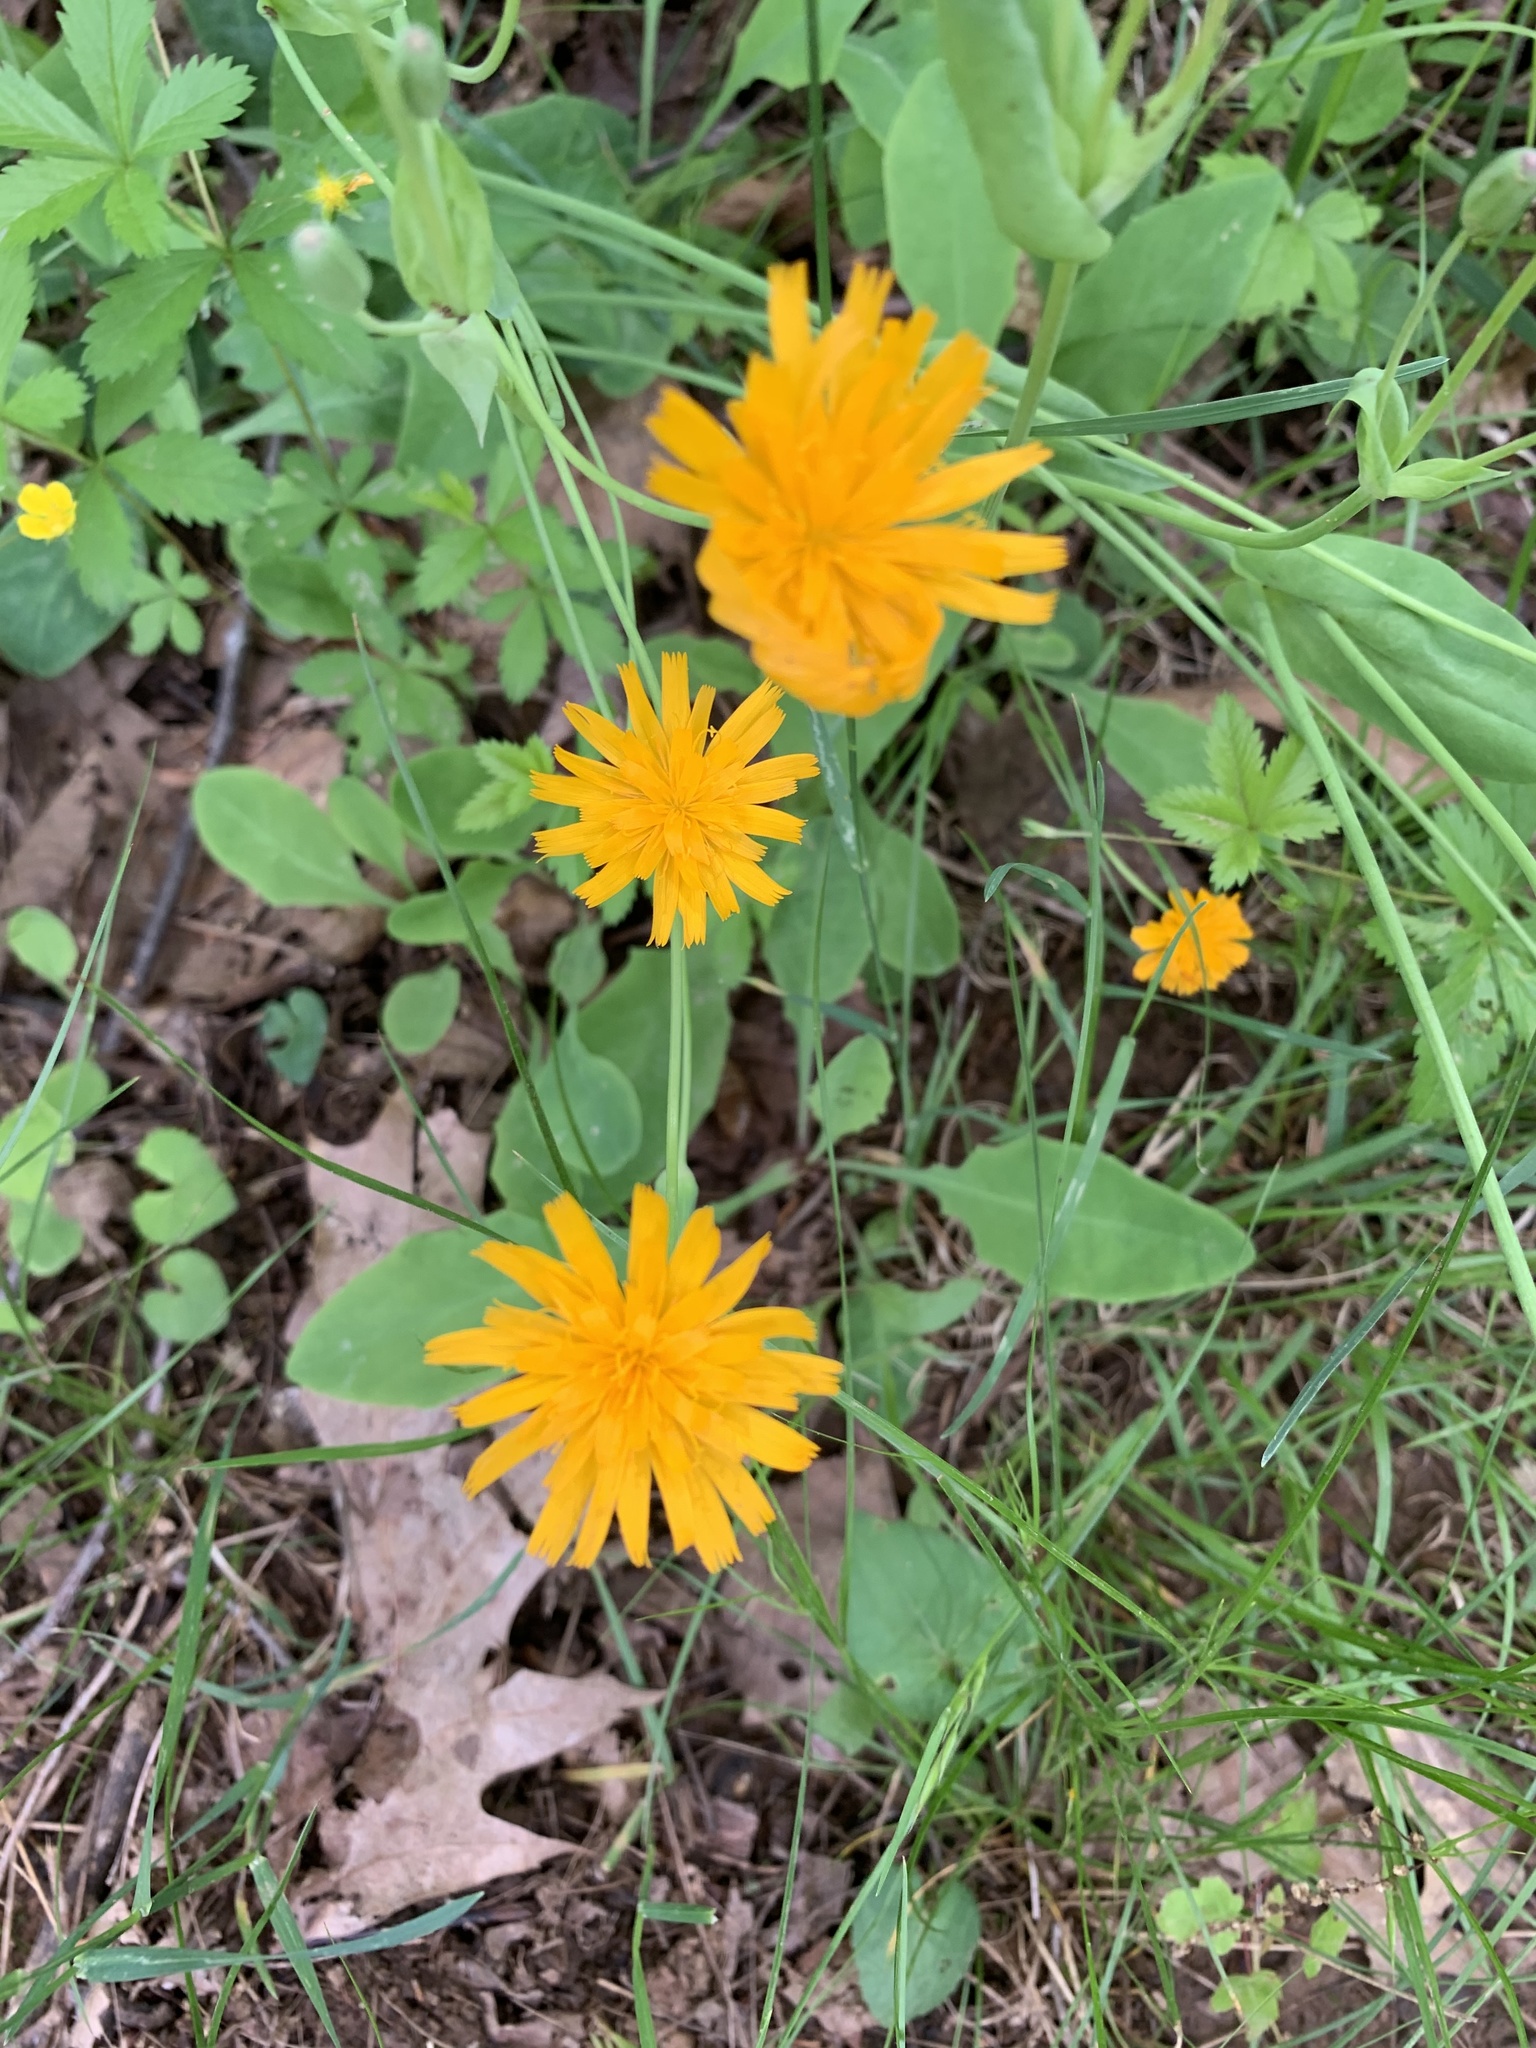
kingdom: Plantae
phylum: Tracheophyta
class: Magnoliopsida
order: Asterales
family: Asteraceae
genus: Krigia
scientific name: Krigia biflora
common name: Orange dwarf-dandelion
